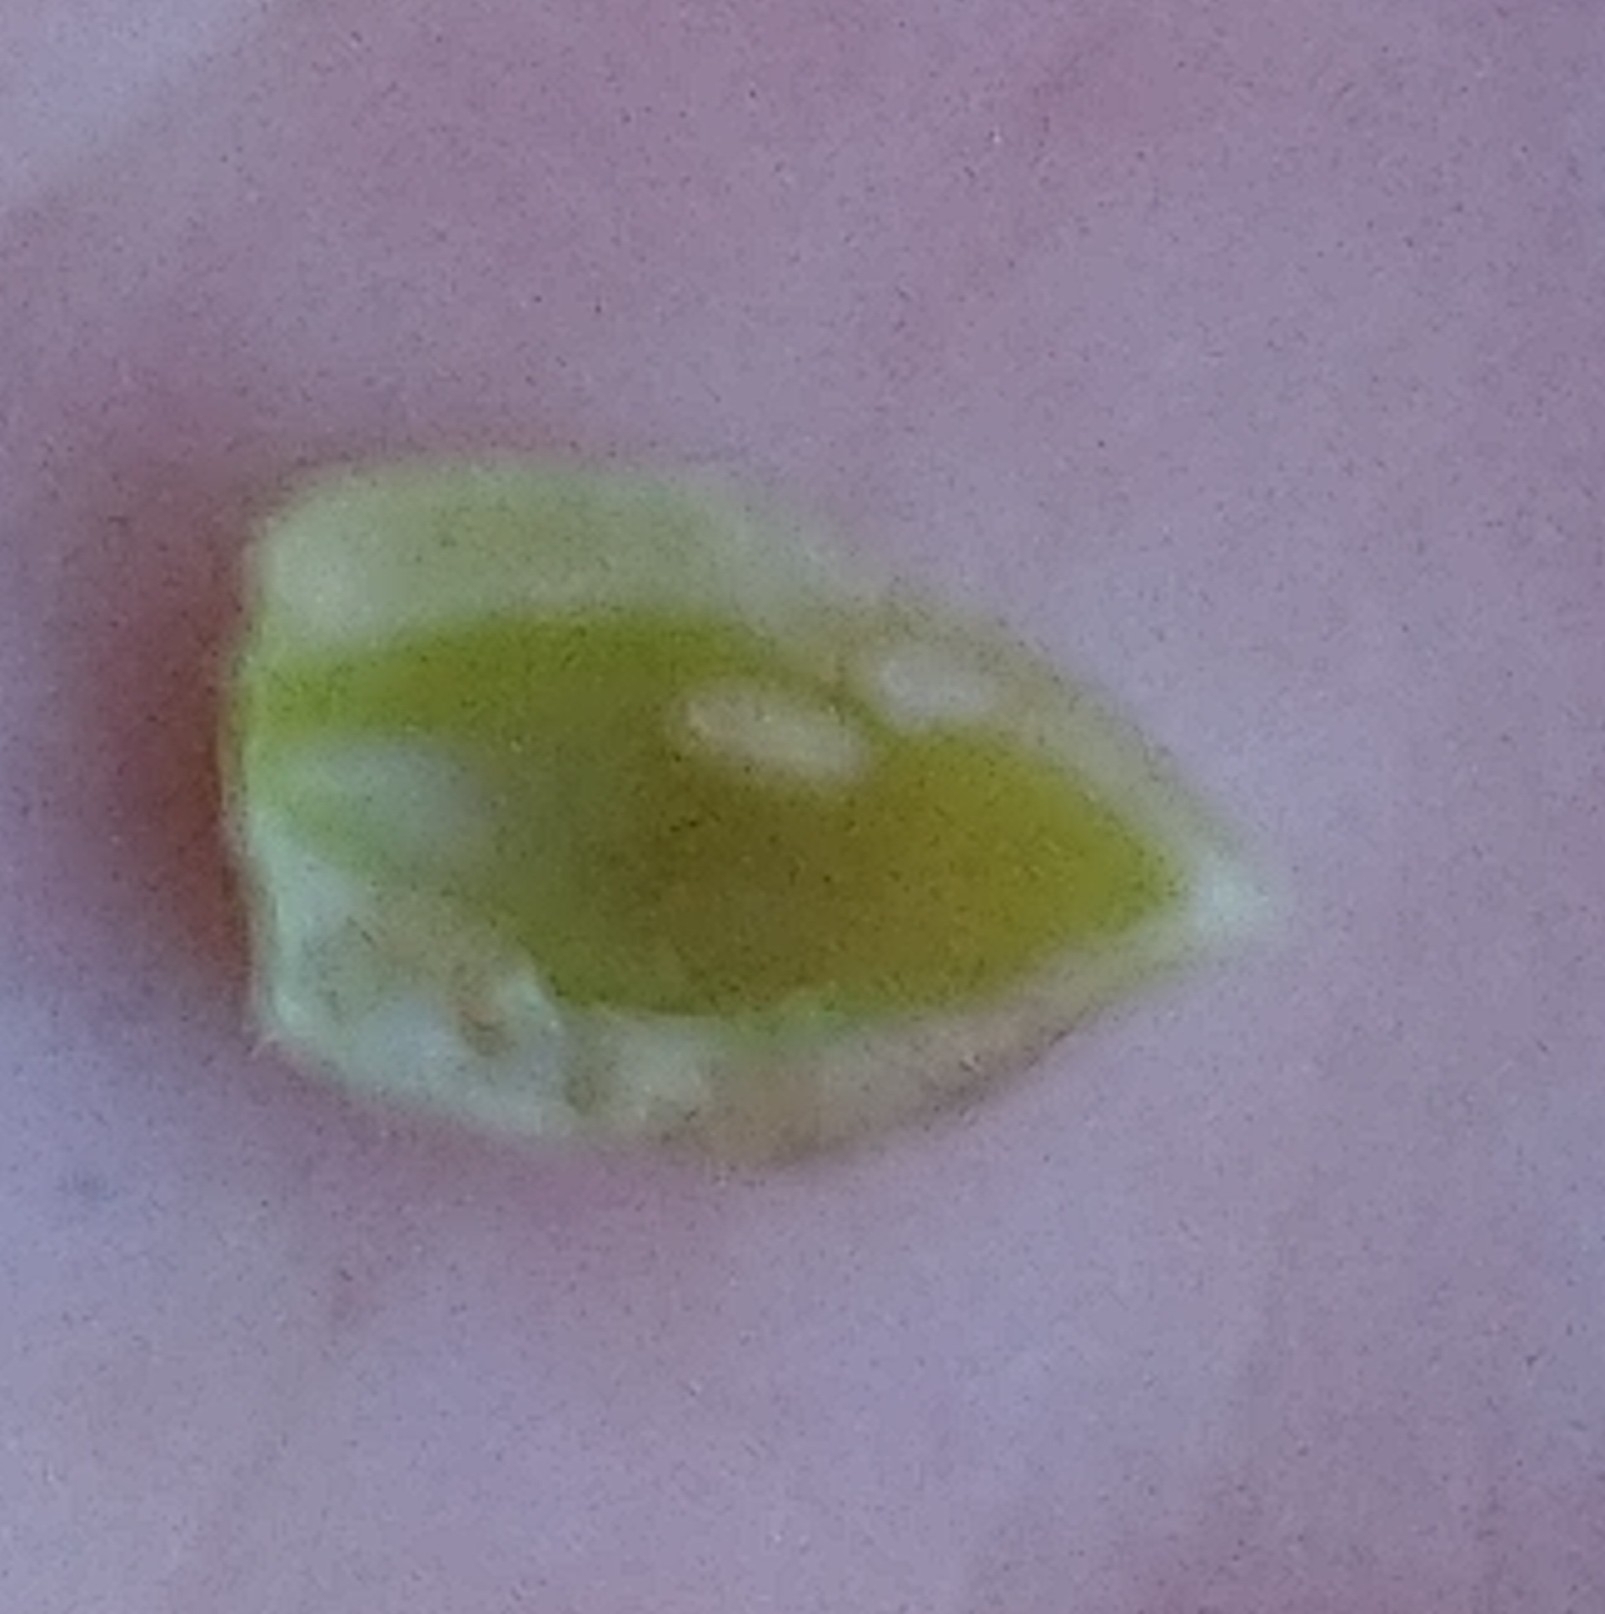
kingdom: Animalia
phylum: Arthropoda
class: Insecta
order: Diptera
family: Cecidomyiidae
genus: Mikiola
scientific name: Mikiola fagi
